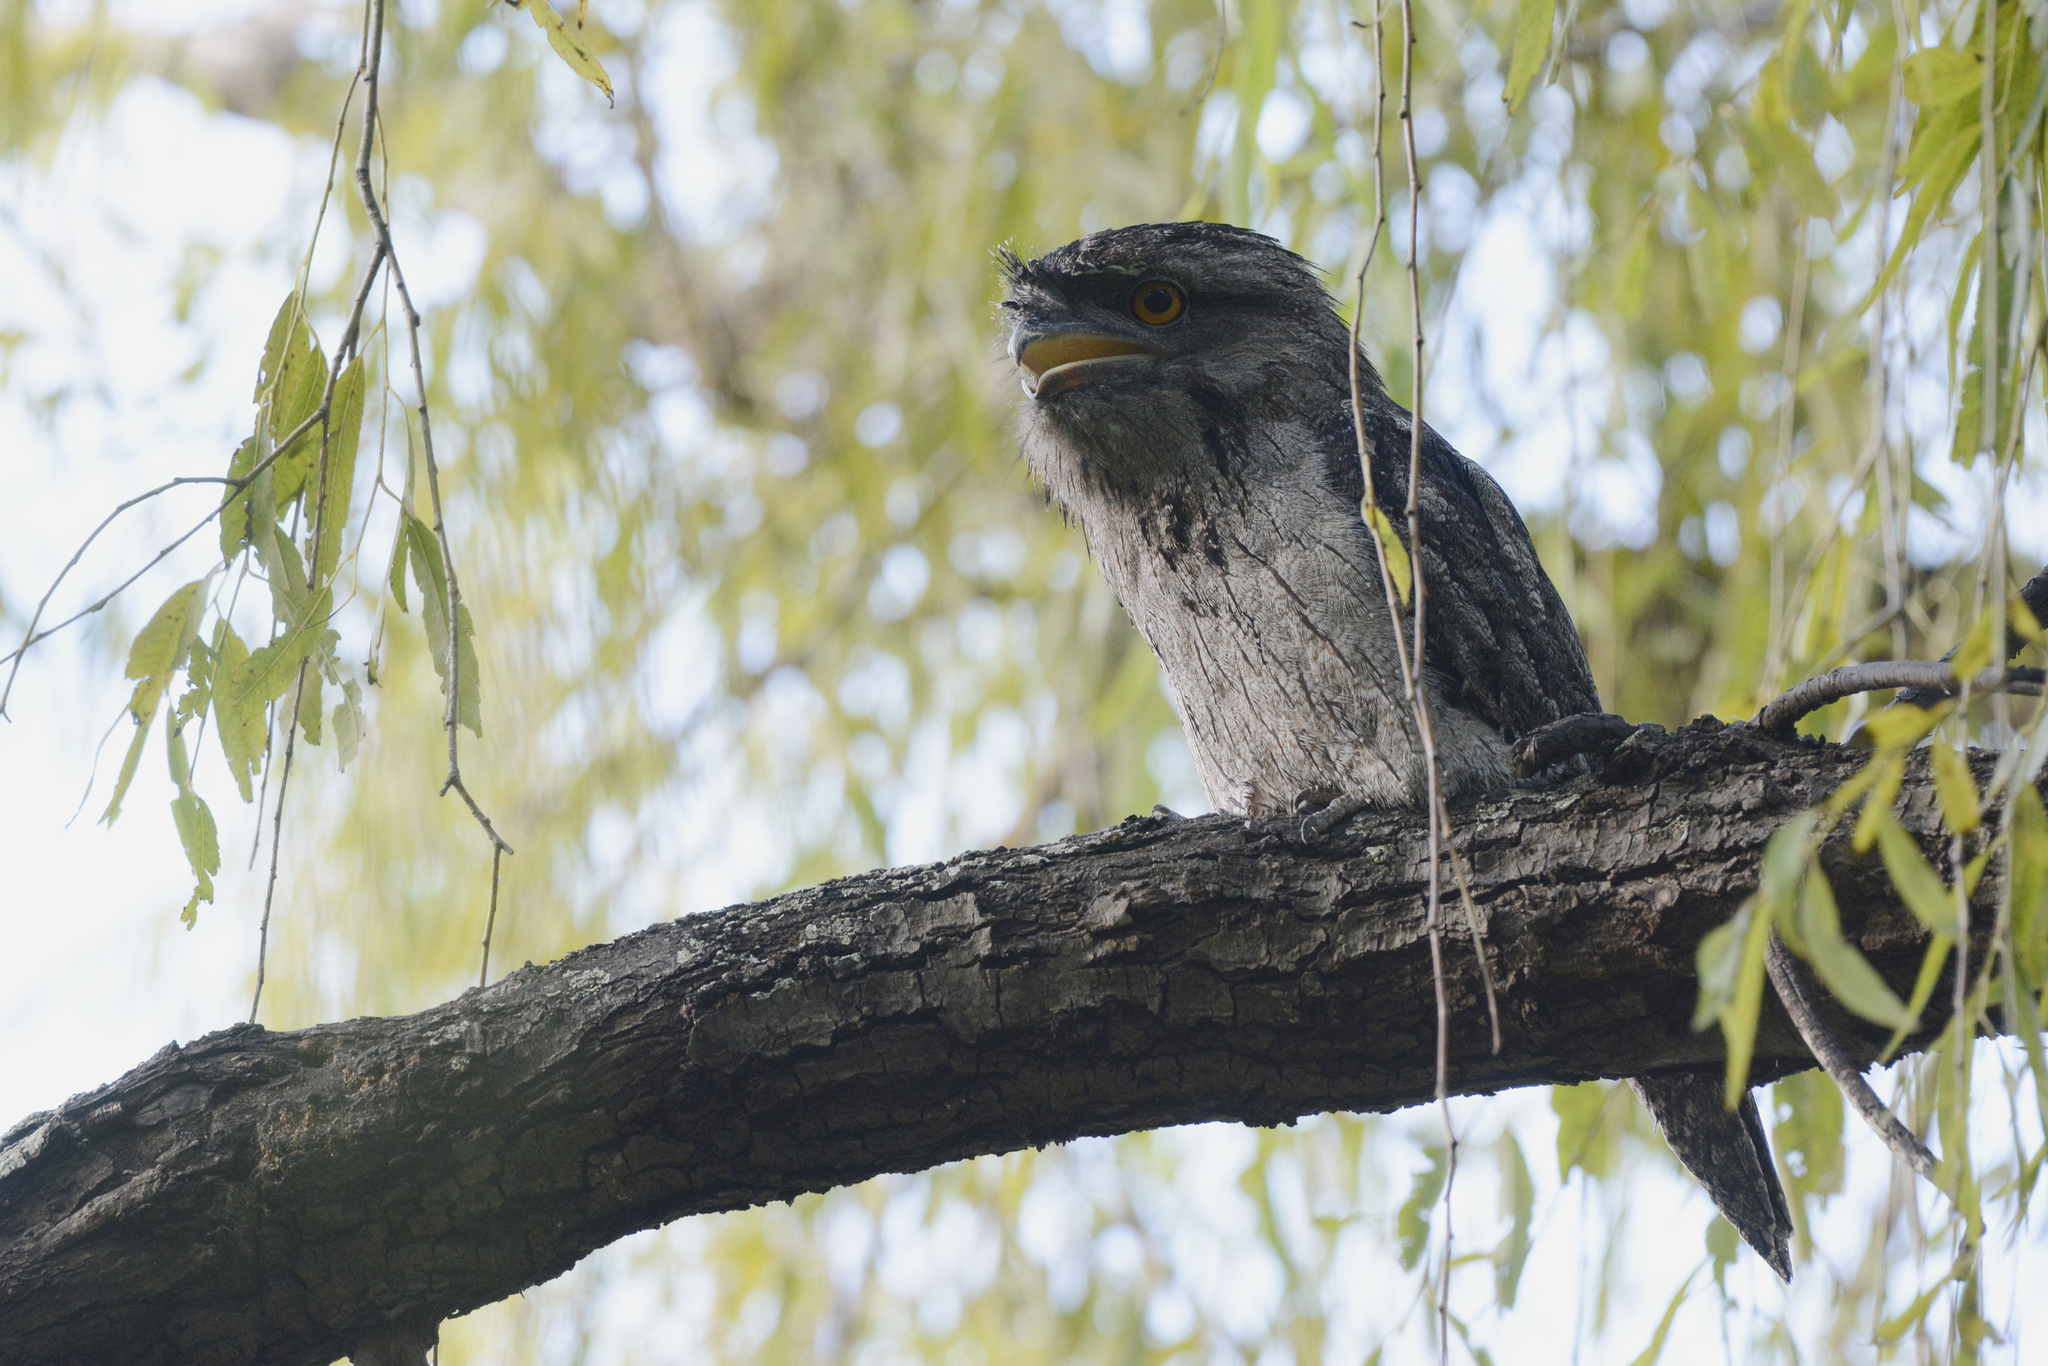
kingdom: Animalia
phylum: Chordata
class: Aves
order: Caprimulgiformes
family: Podargidae
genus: Podargus
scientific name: Podargus strigoides
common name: Tawny frogmouth
